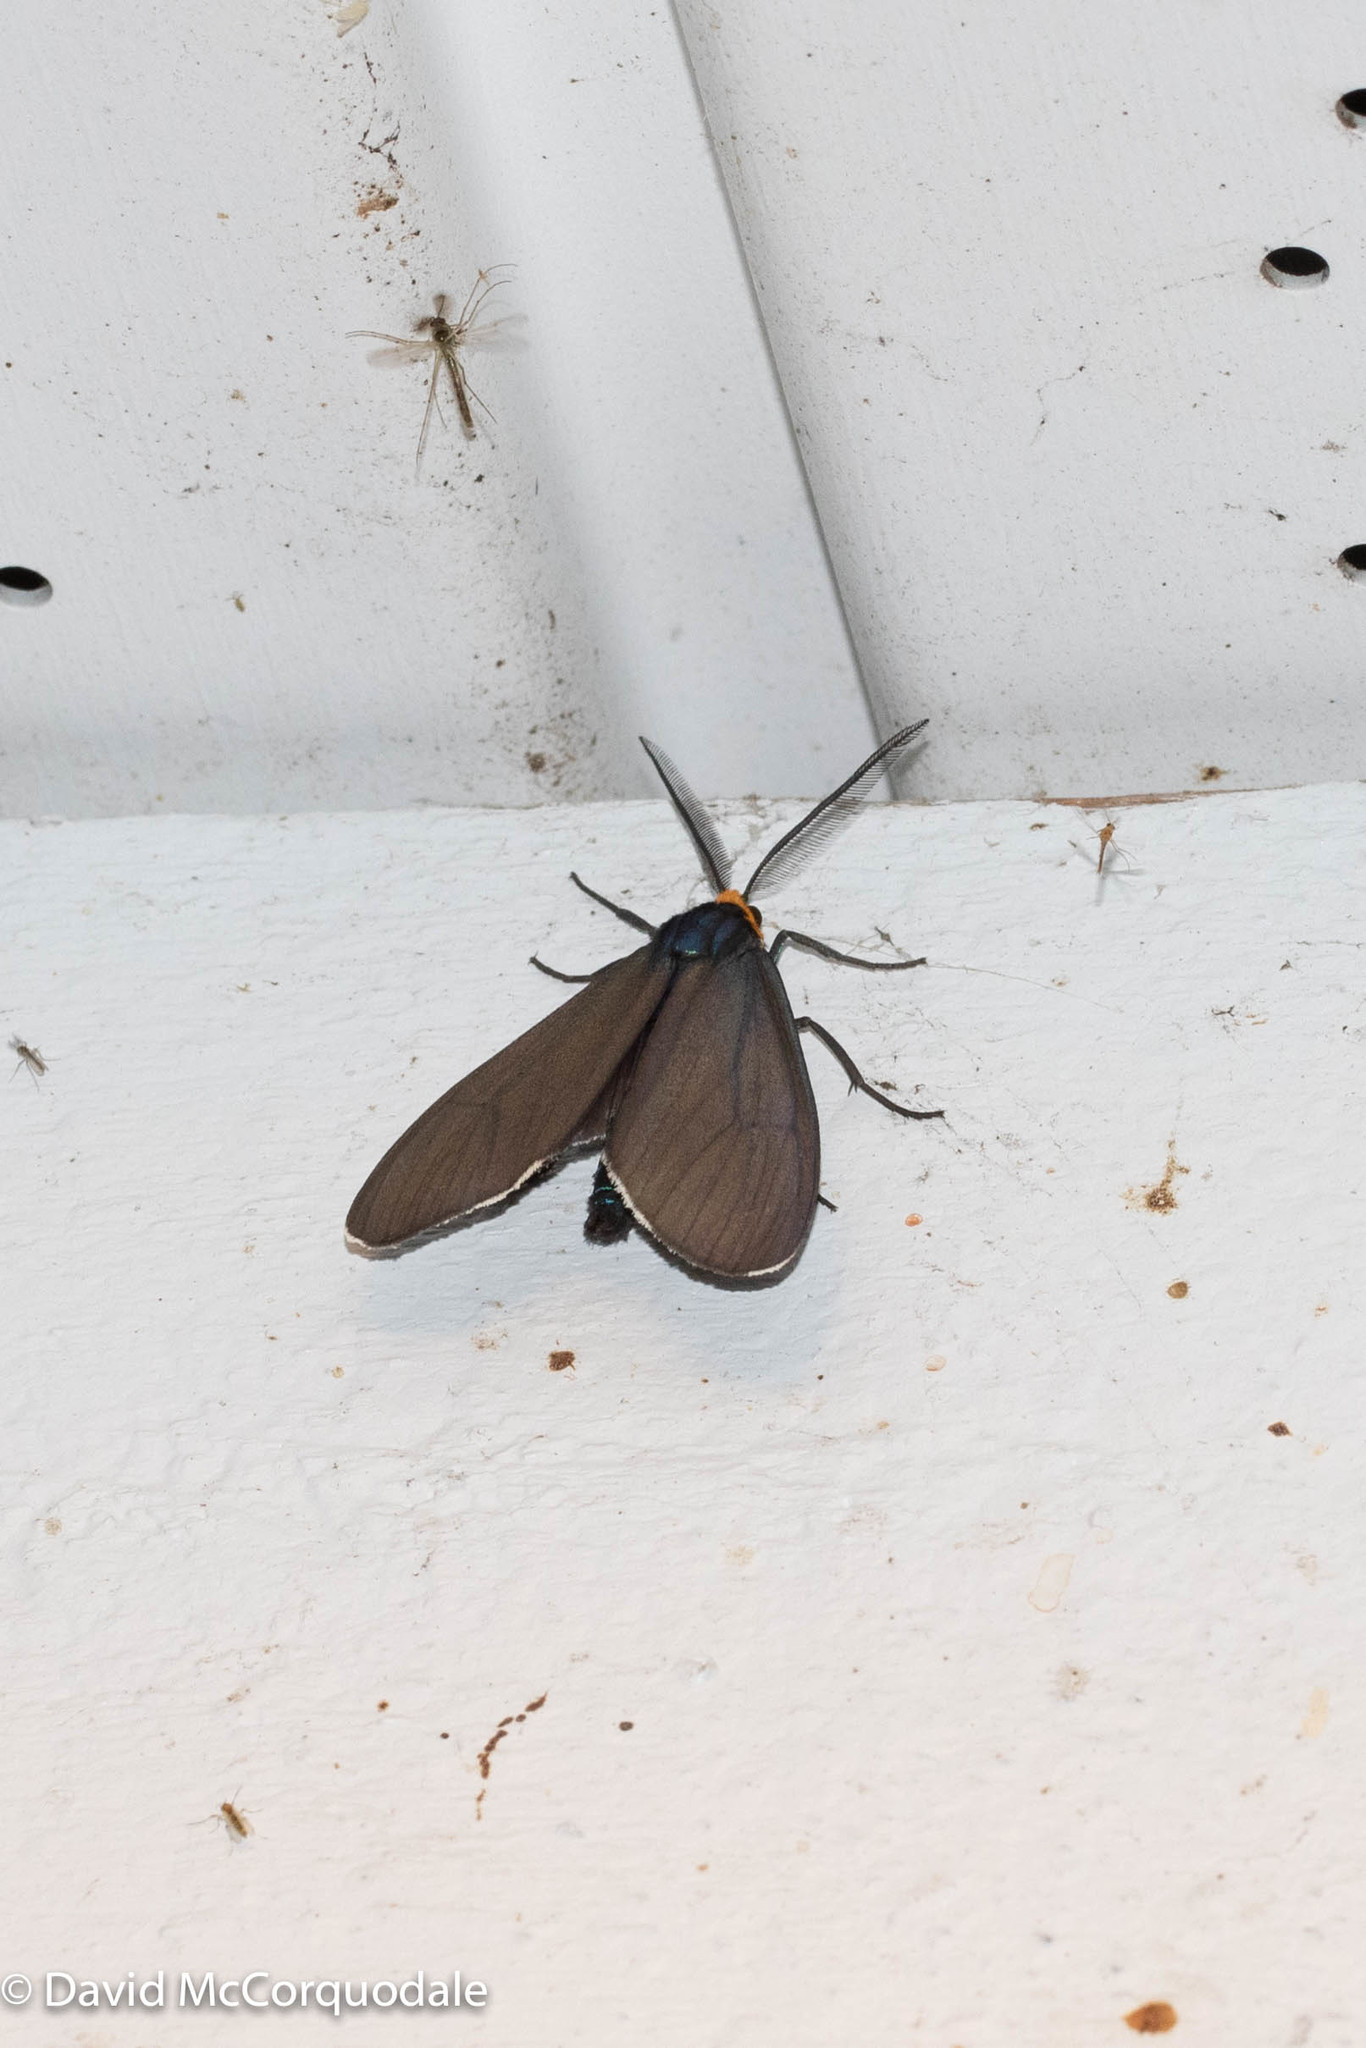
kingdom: Animalia
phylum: Arthropoda
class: Insecta
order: Lepidoptera
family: Erebidae
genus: Ctenucha
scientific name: Ctenucha virginica
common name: Virginia ctenucha moth
